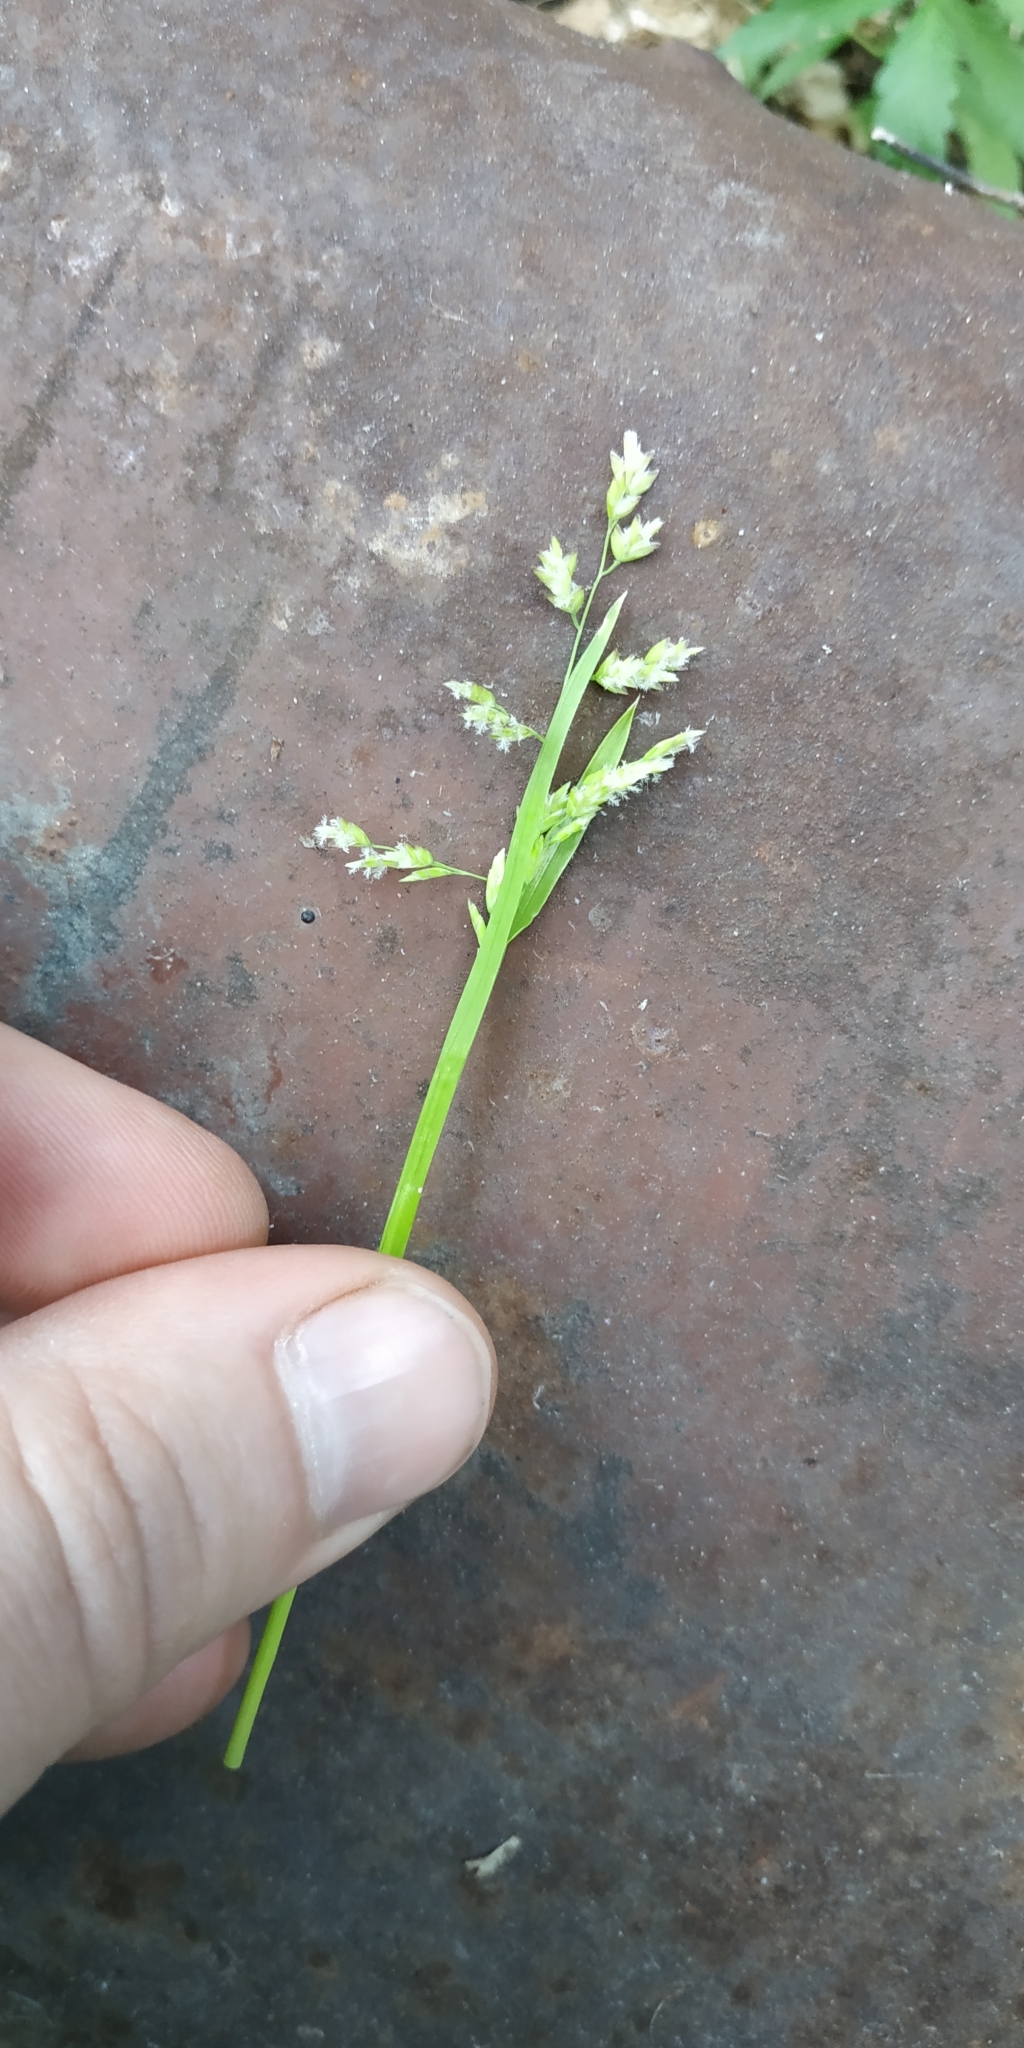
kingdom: Plantae
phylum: Tracheophyta
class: Liliopsida
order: Poales
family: Poaceae
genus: Poa
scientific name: Poa annua
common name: Annual bluegrass
